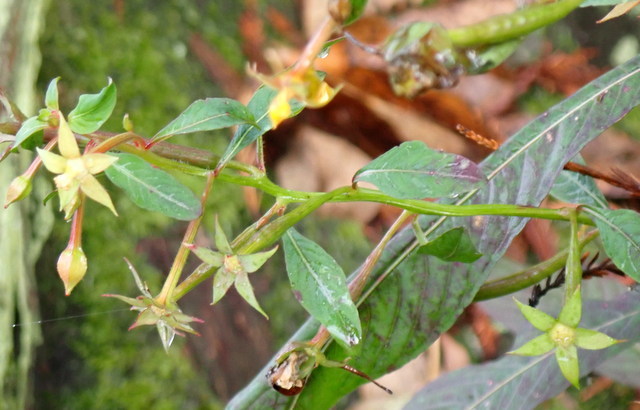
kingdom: Plantae
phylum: Tracheophyta
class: Magnoliopsida
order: Myrtales
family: Onagraceae
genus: Ludwigia
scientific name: Ludwigia leptocarpa
